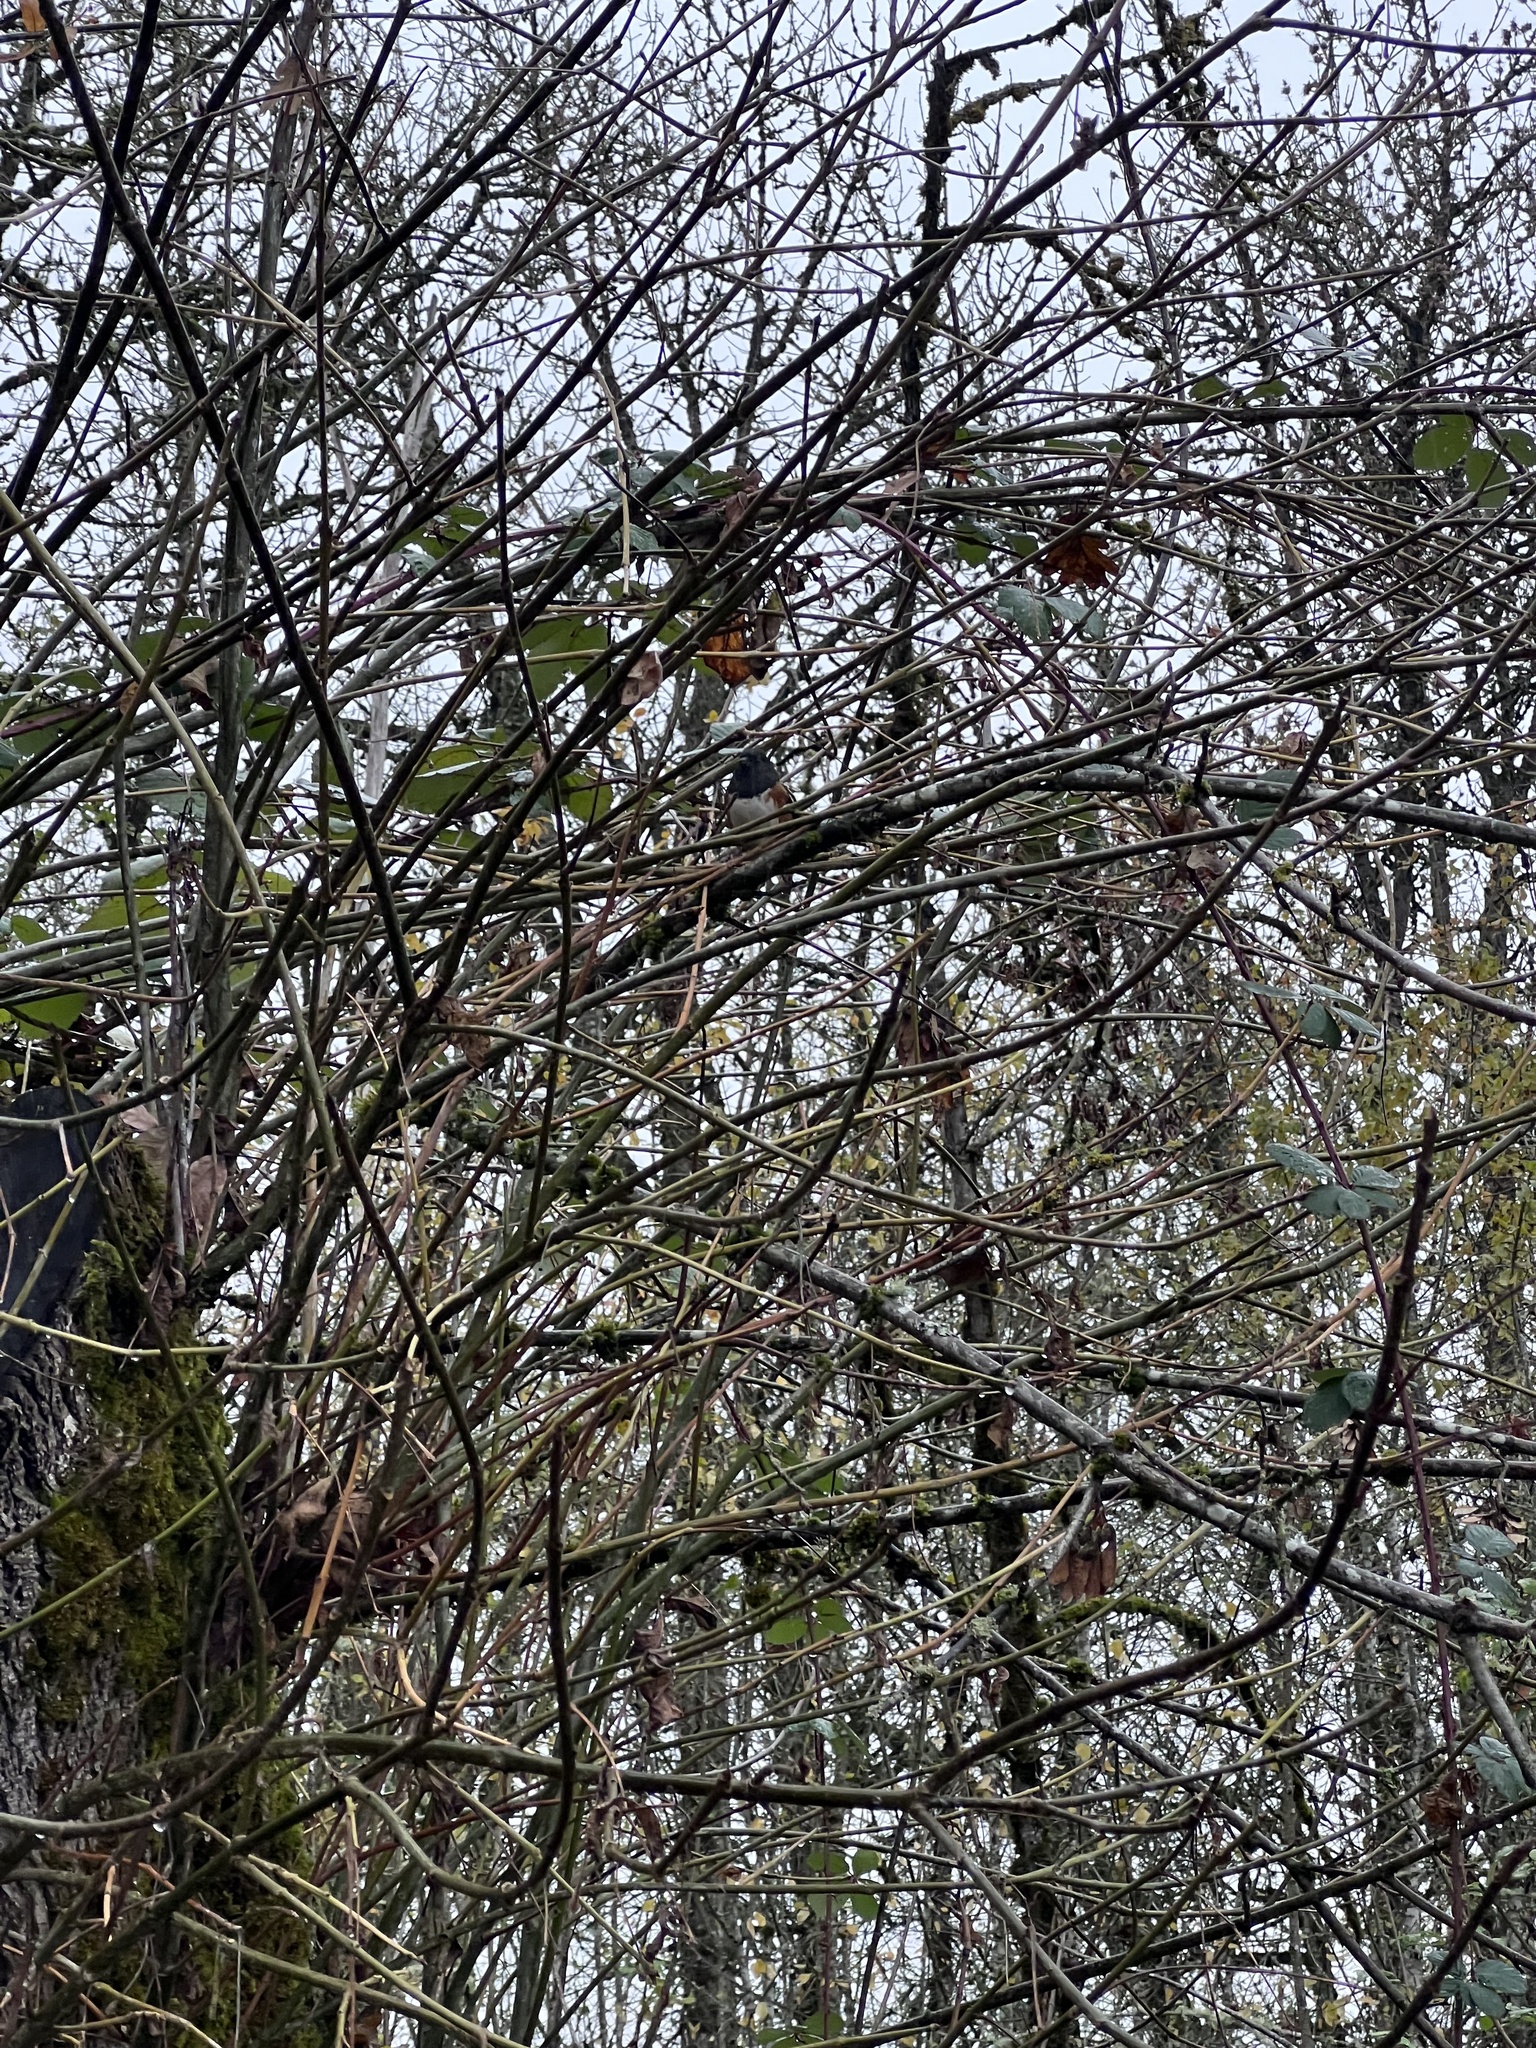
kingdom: Animalia
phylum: Chordata
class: Aves
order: Passeriformes
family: Passerellidae
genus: Pipilo
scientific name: Pipilo maculatus
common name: Spotted towhee
